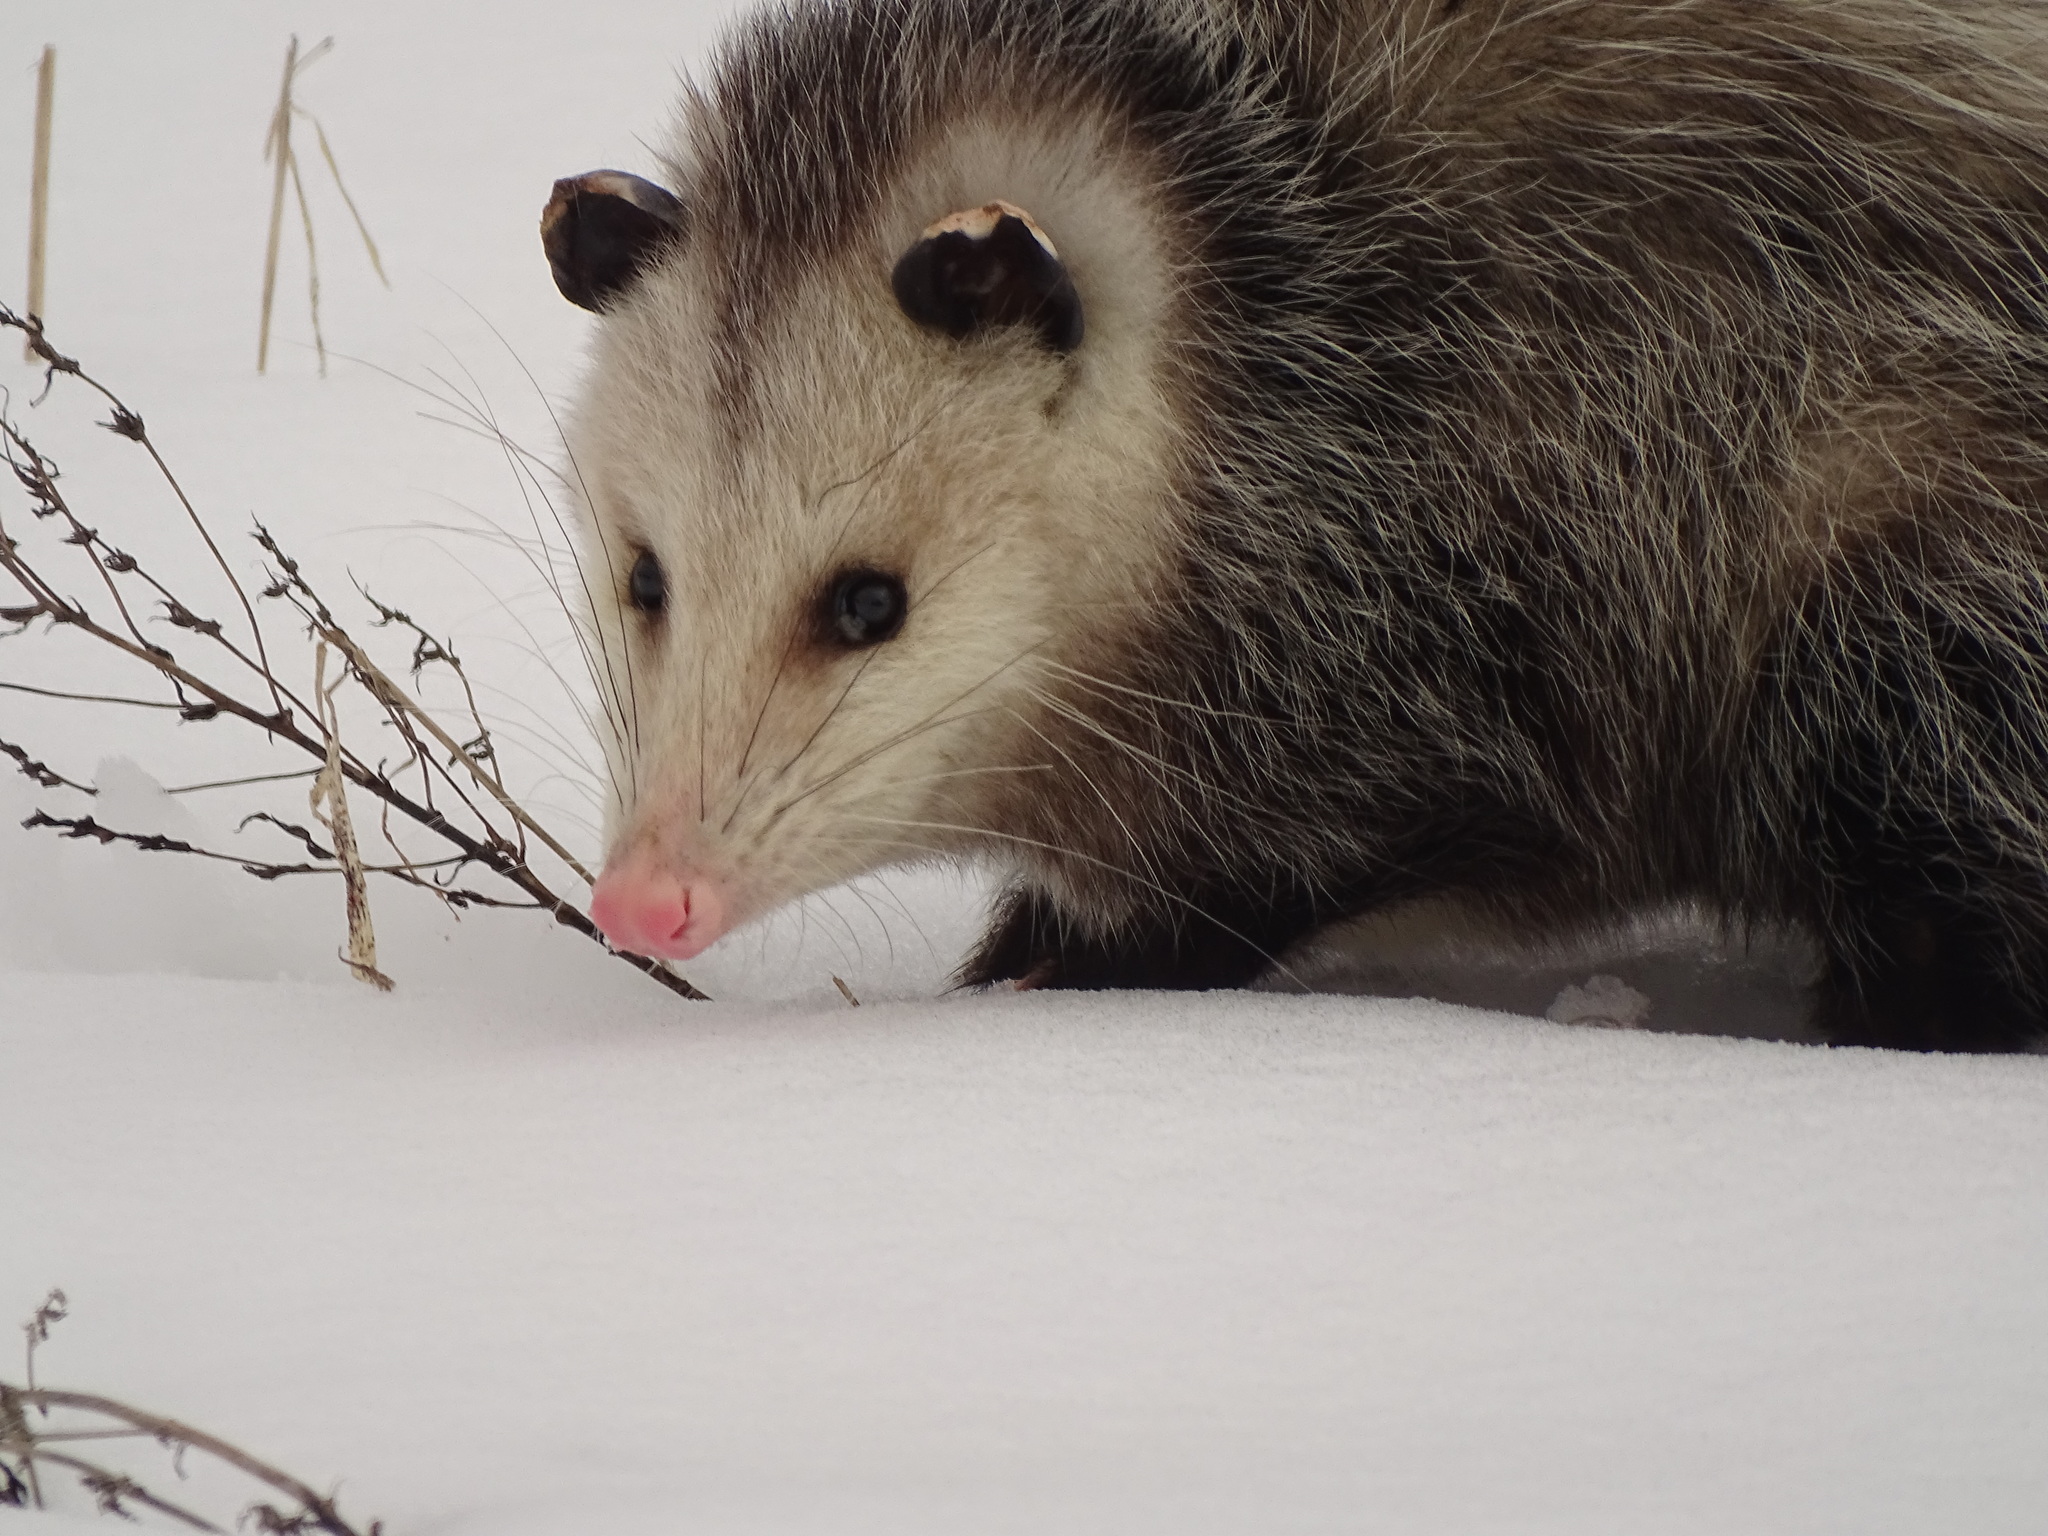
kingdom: Animalia
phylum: Chordata
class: Mammalia
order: Didelphimorphia
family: Didelphidae
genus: Didelphis
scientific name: Didelphis virginiana
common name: Virginia opossum
